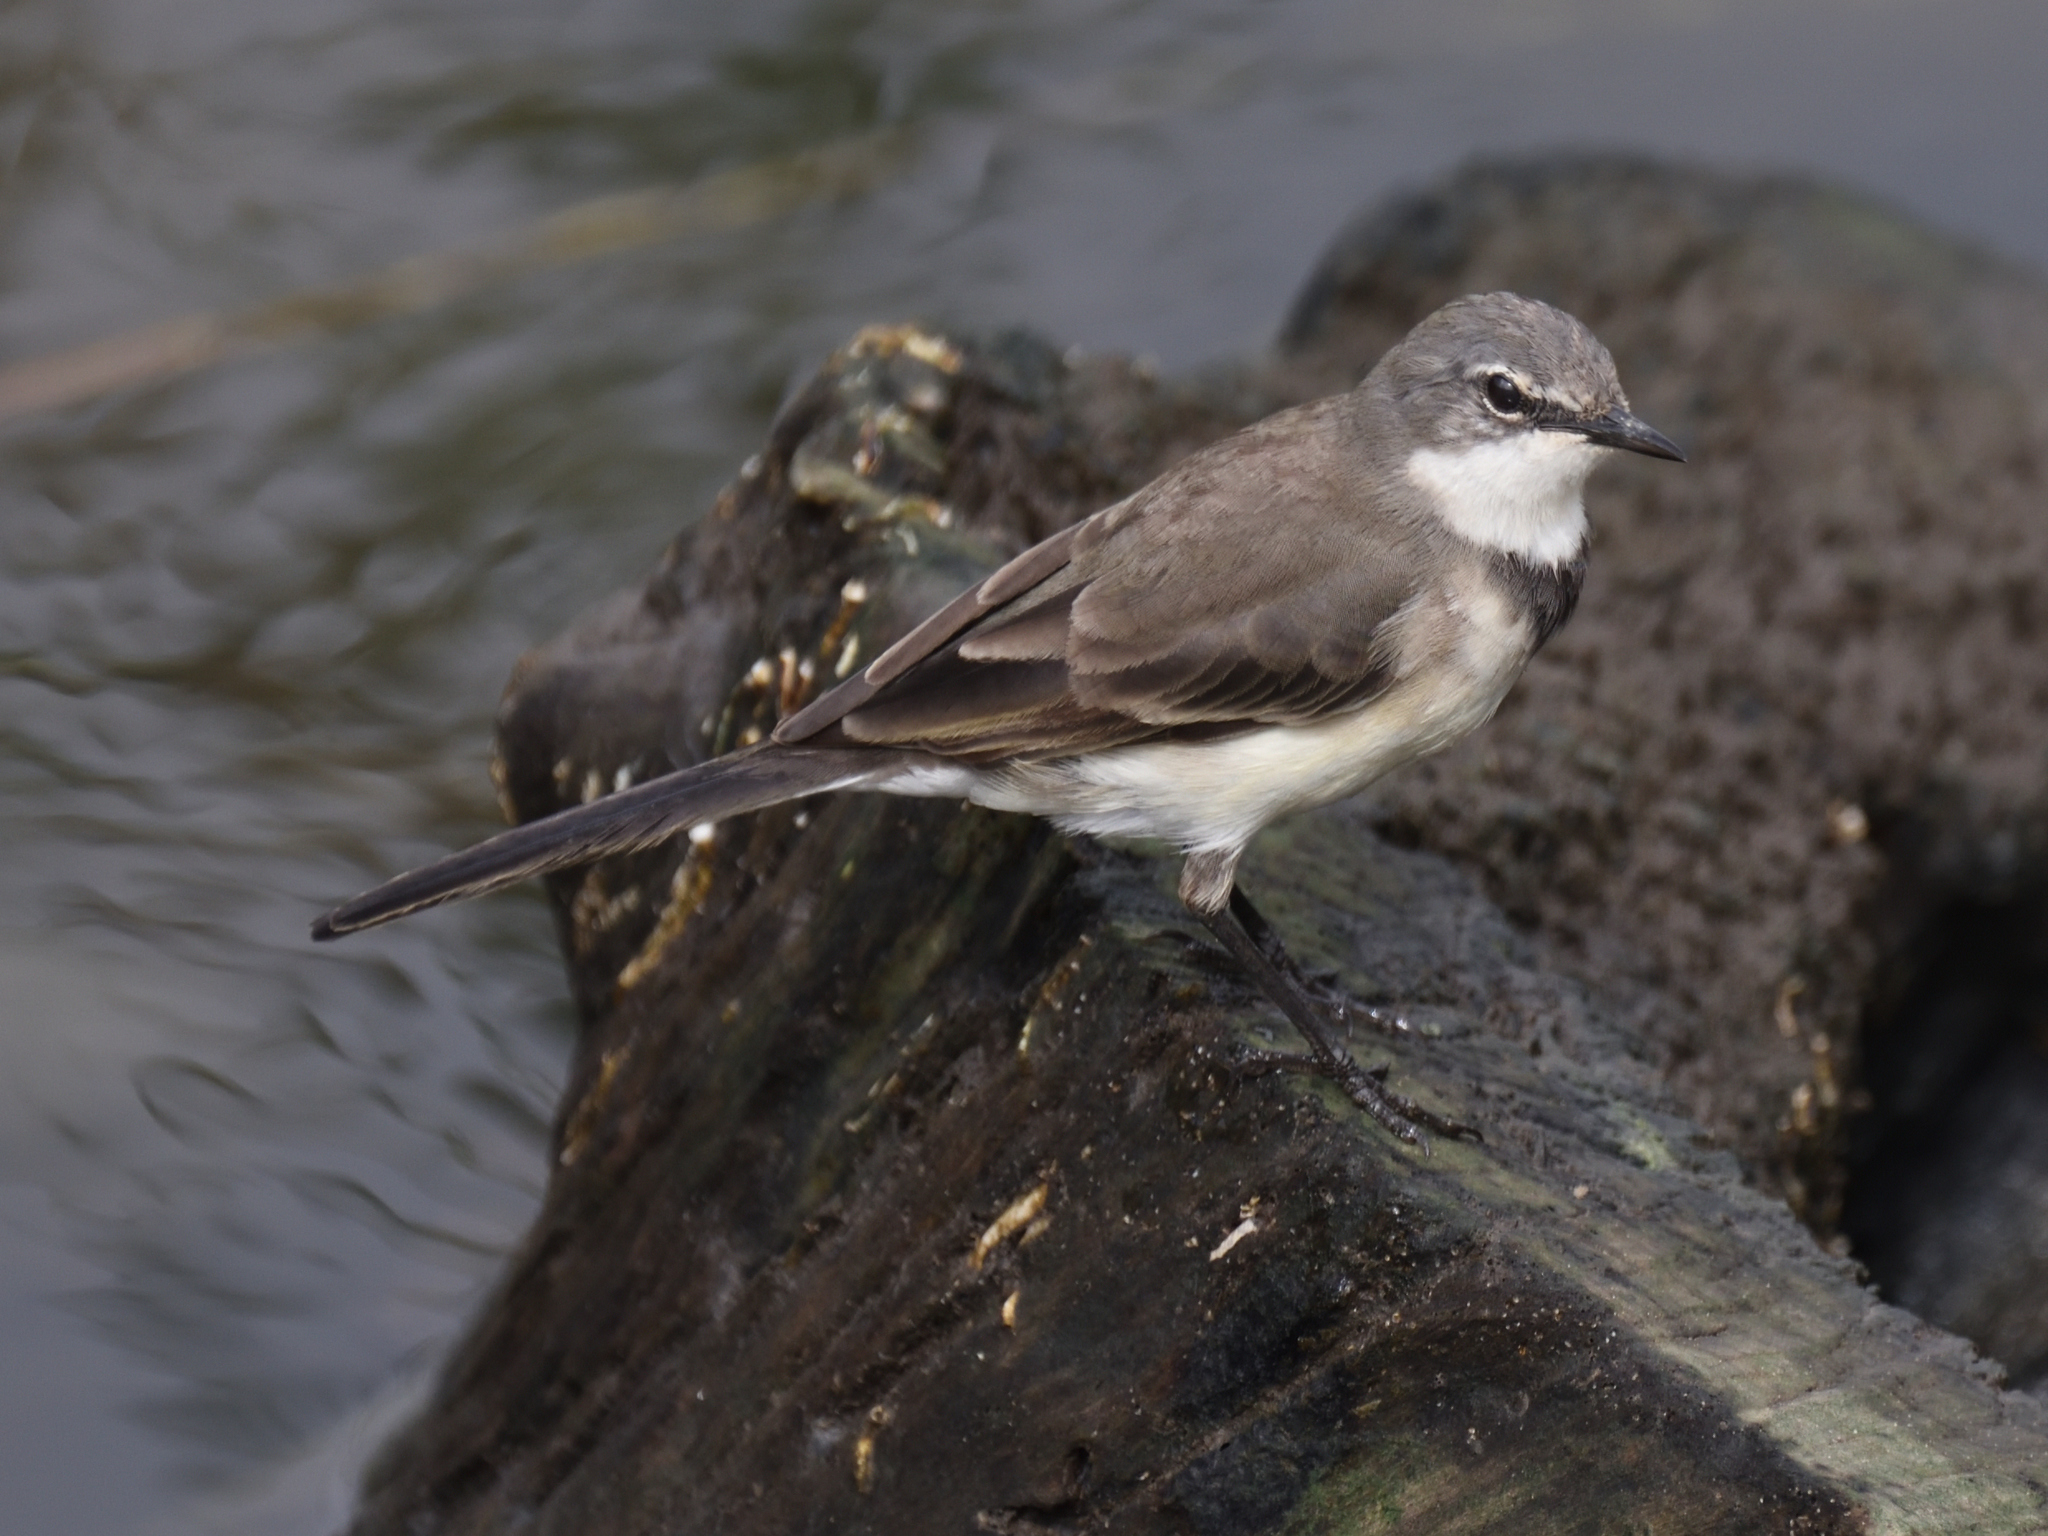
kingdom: Animalia
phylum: Chordata
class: Aves
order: Passeriformes
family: Motacillidae
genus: Motacilla
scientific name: Motacilla capensis
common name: Cape wagtail
